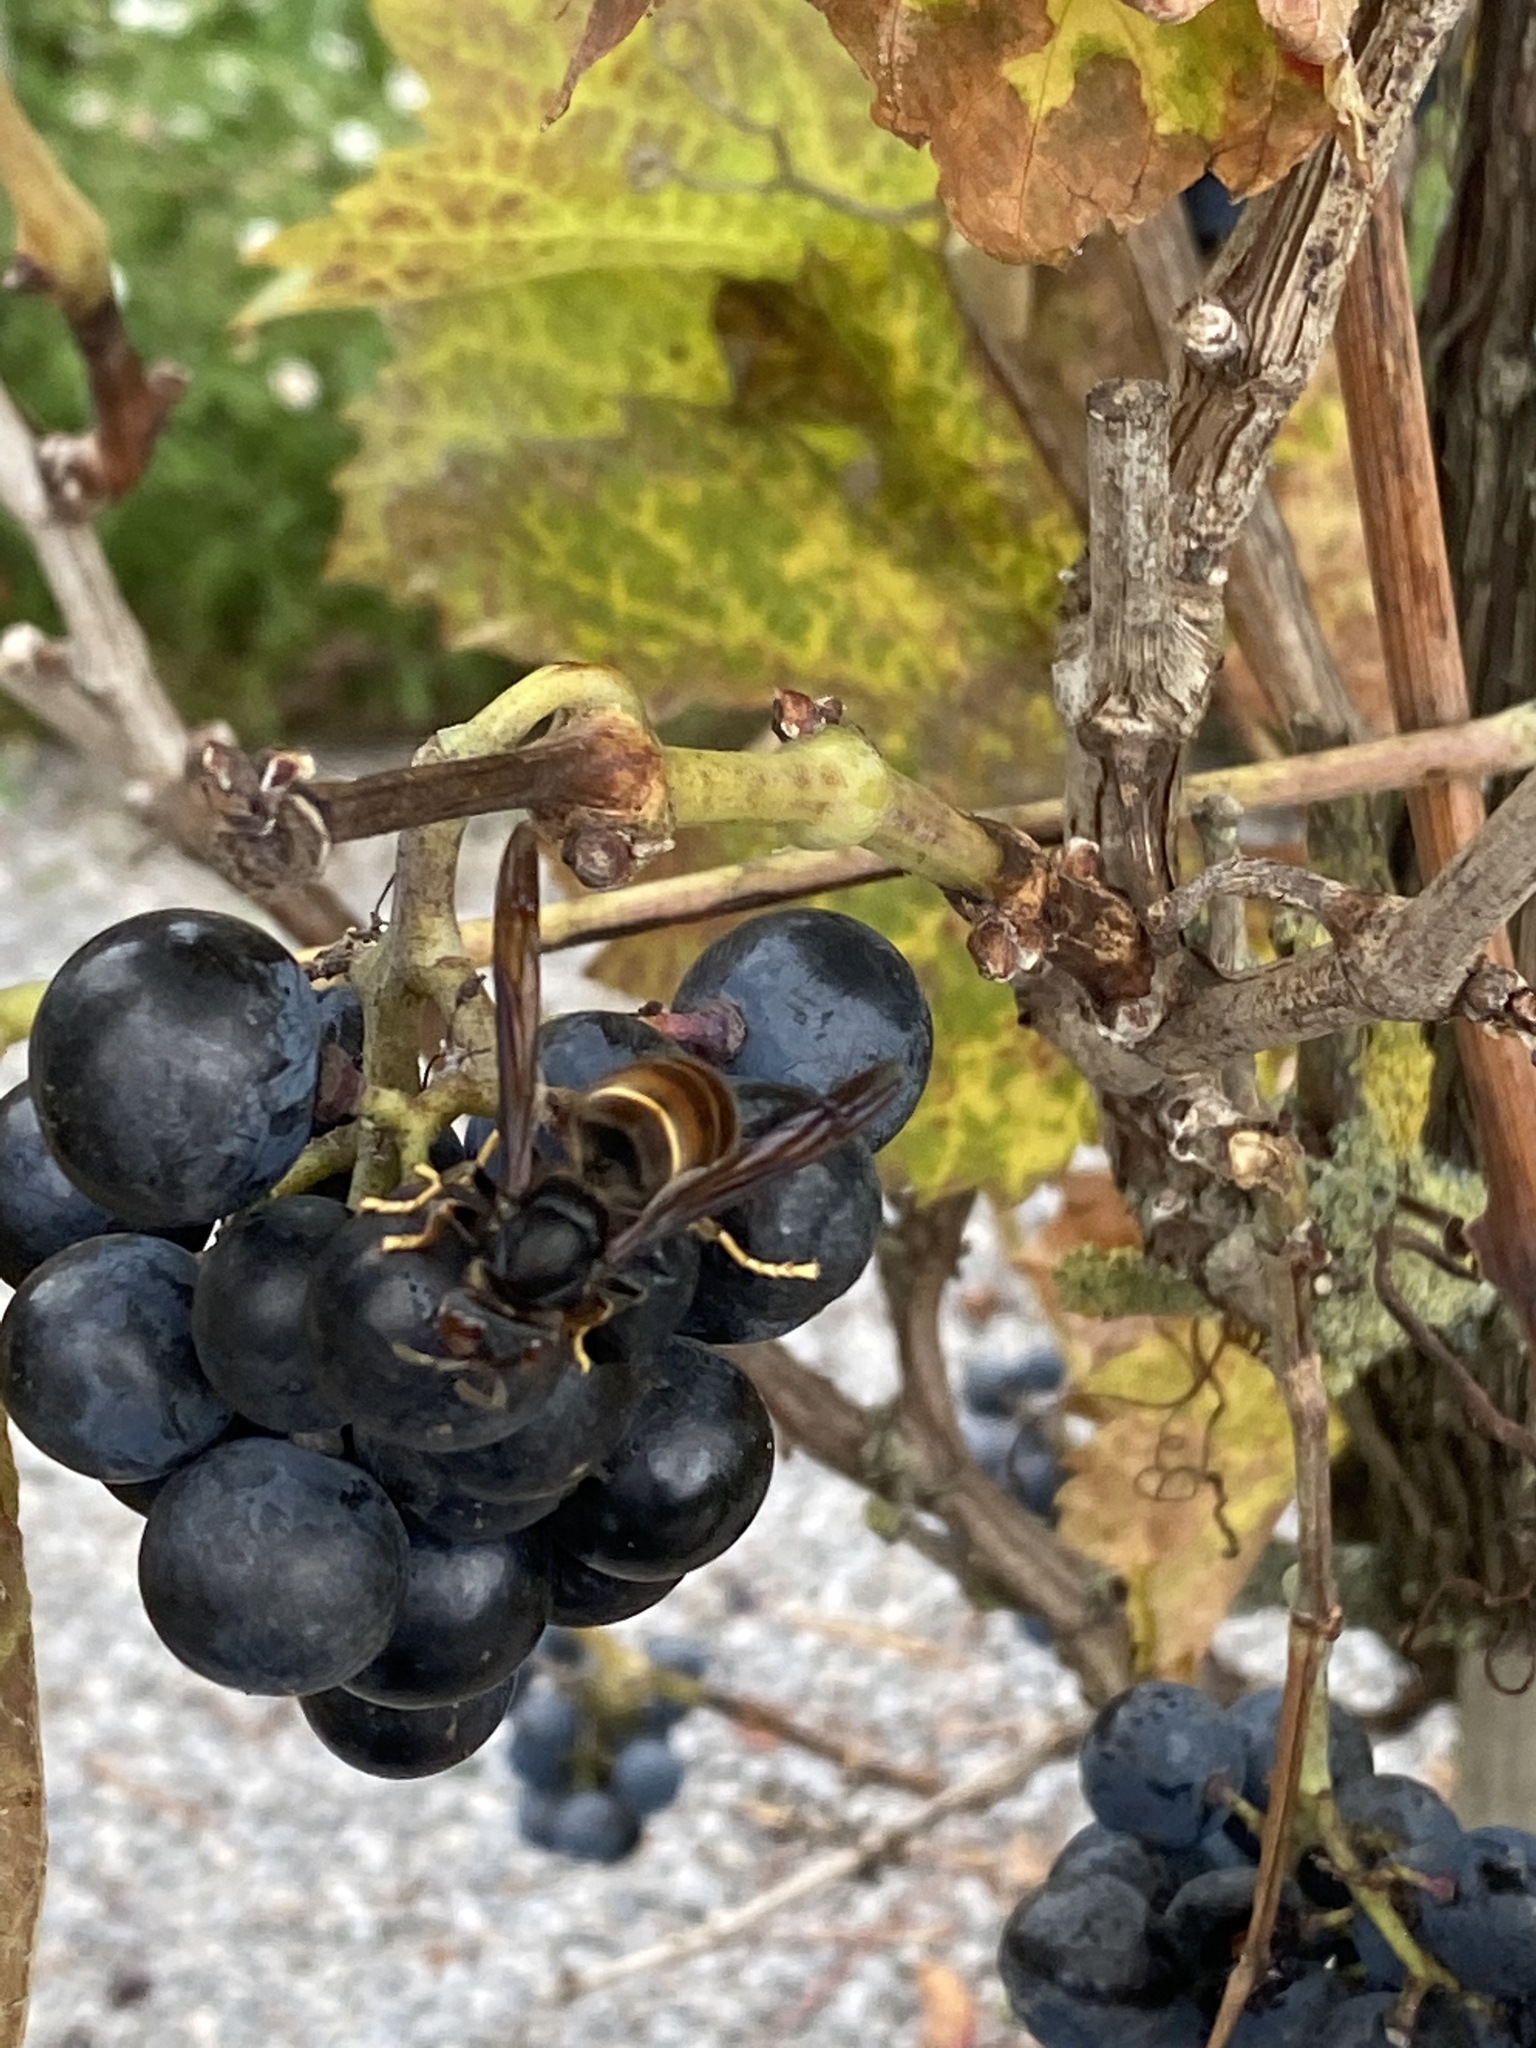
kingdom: Animalia
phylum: Arthropoda
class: Insecta
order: Hymenoptera
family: Vespidae
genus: Vespa
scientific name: Vespa velutina
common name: Asian hornet
